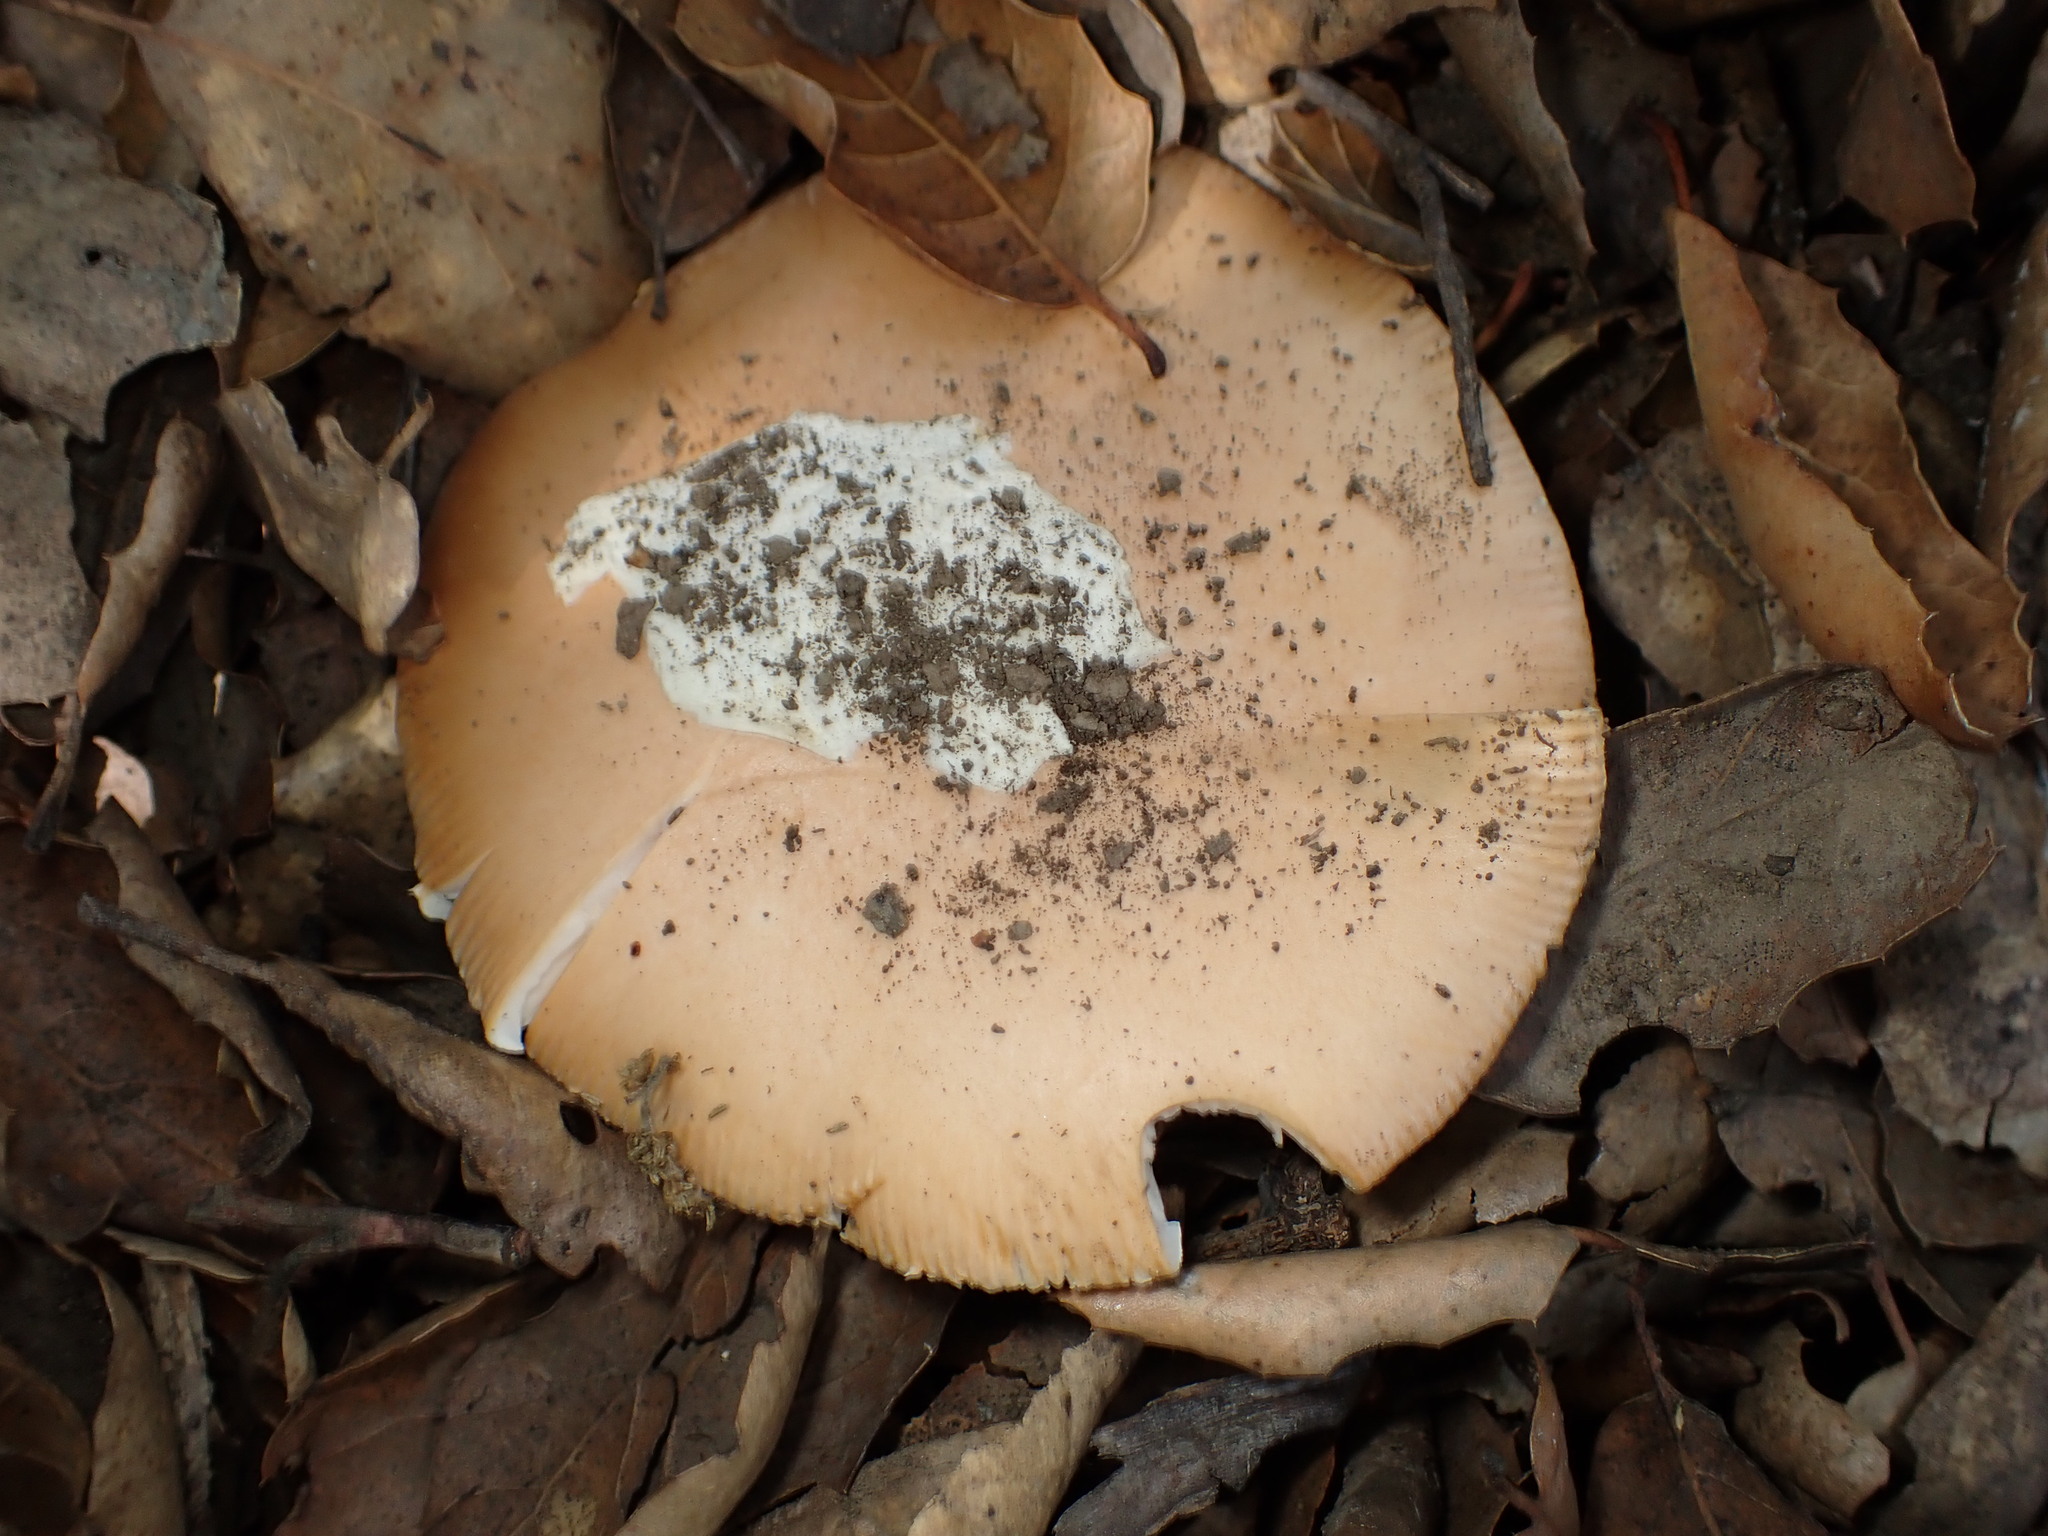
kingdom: Fungi
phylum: Basidiomycota
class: Agaricomycetes
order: Agaricales
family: Amanitaceae
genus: Amanita
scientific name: Amanita velosa
